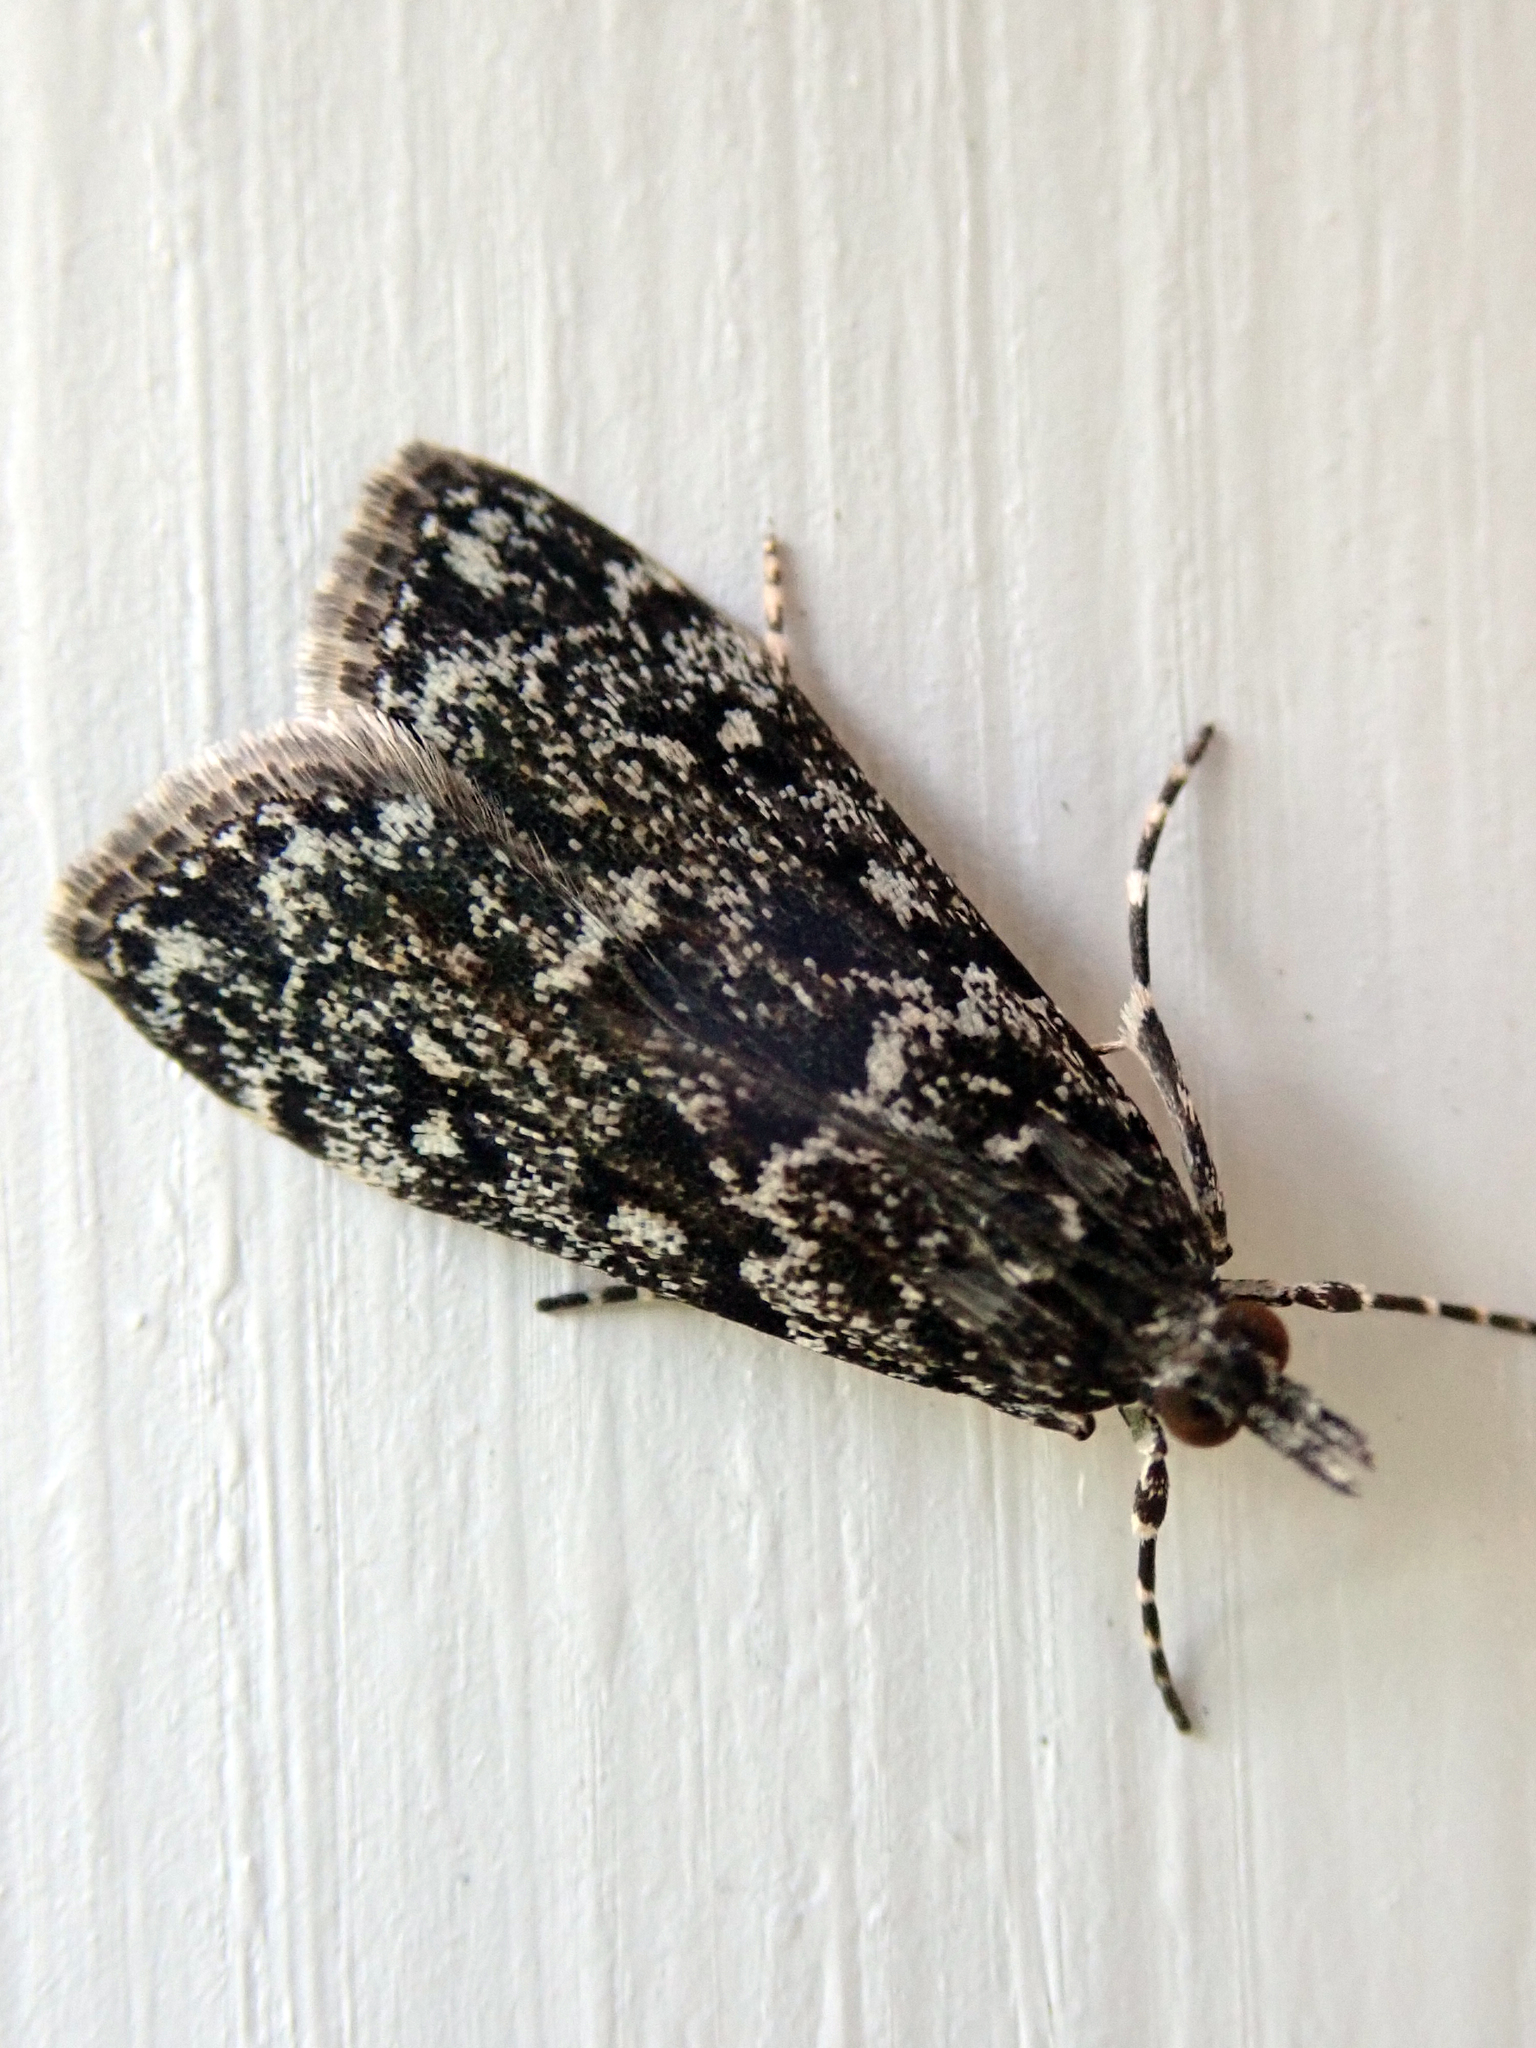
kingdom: Animalia
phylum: Arthropoda
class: Insecta
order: Lepidoptera
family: Crambidae
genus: Eudonia
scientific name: Eudonia philerga
